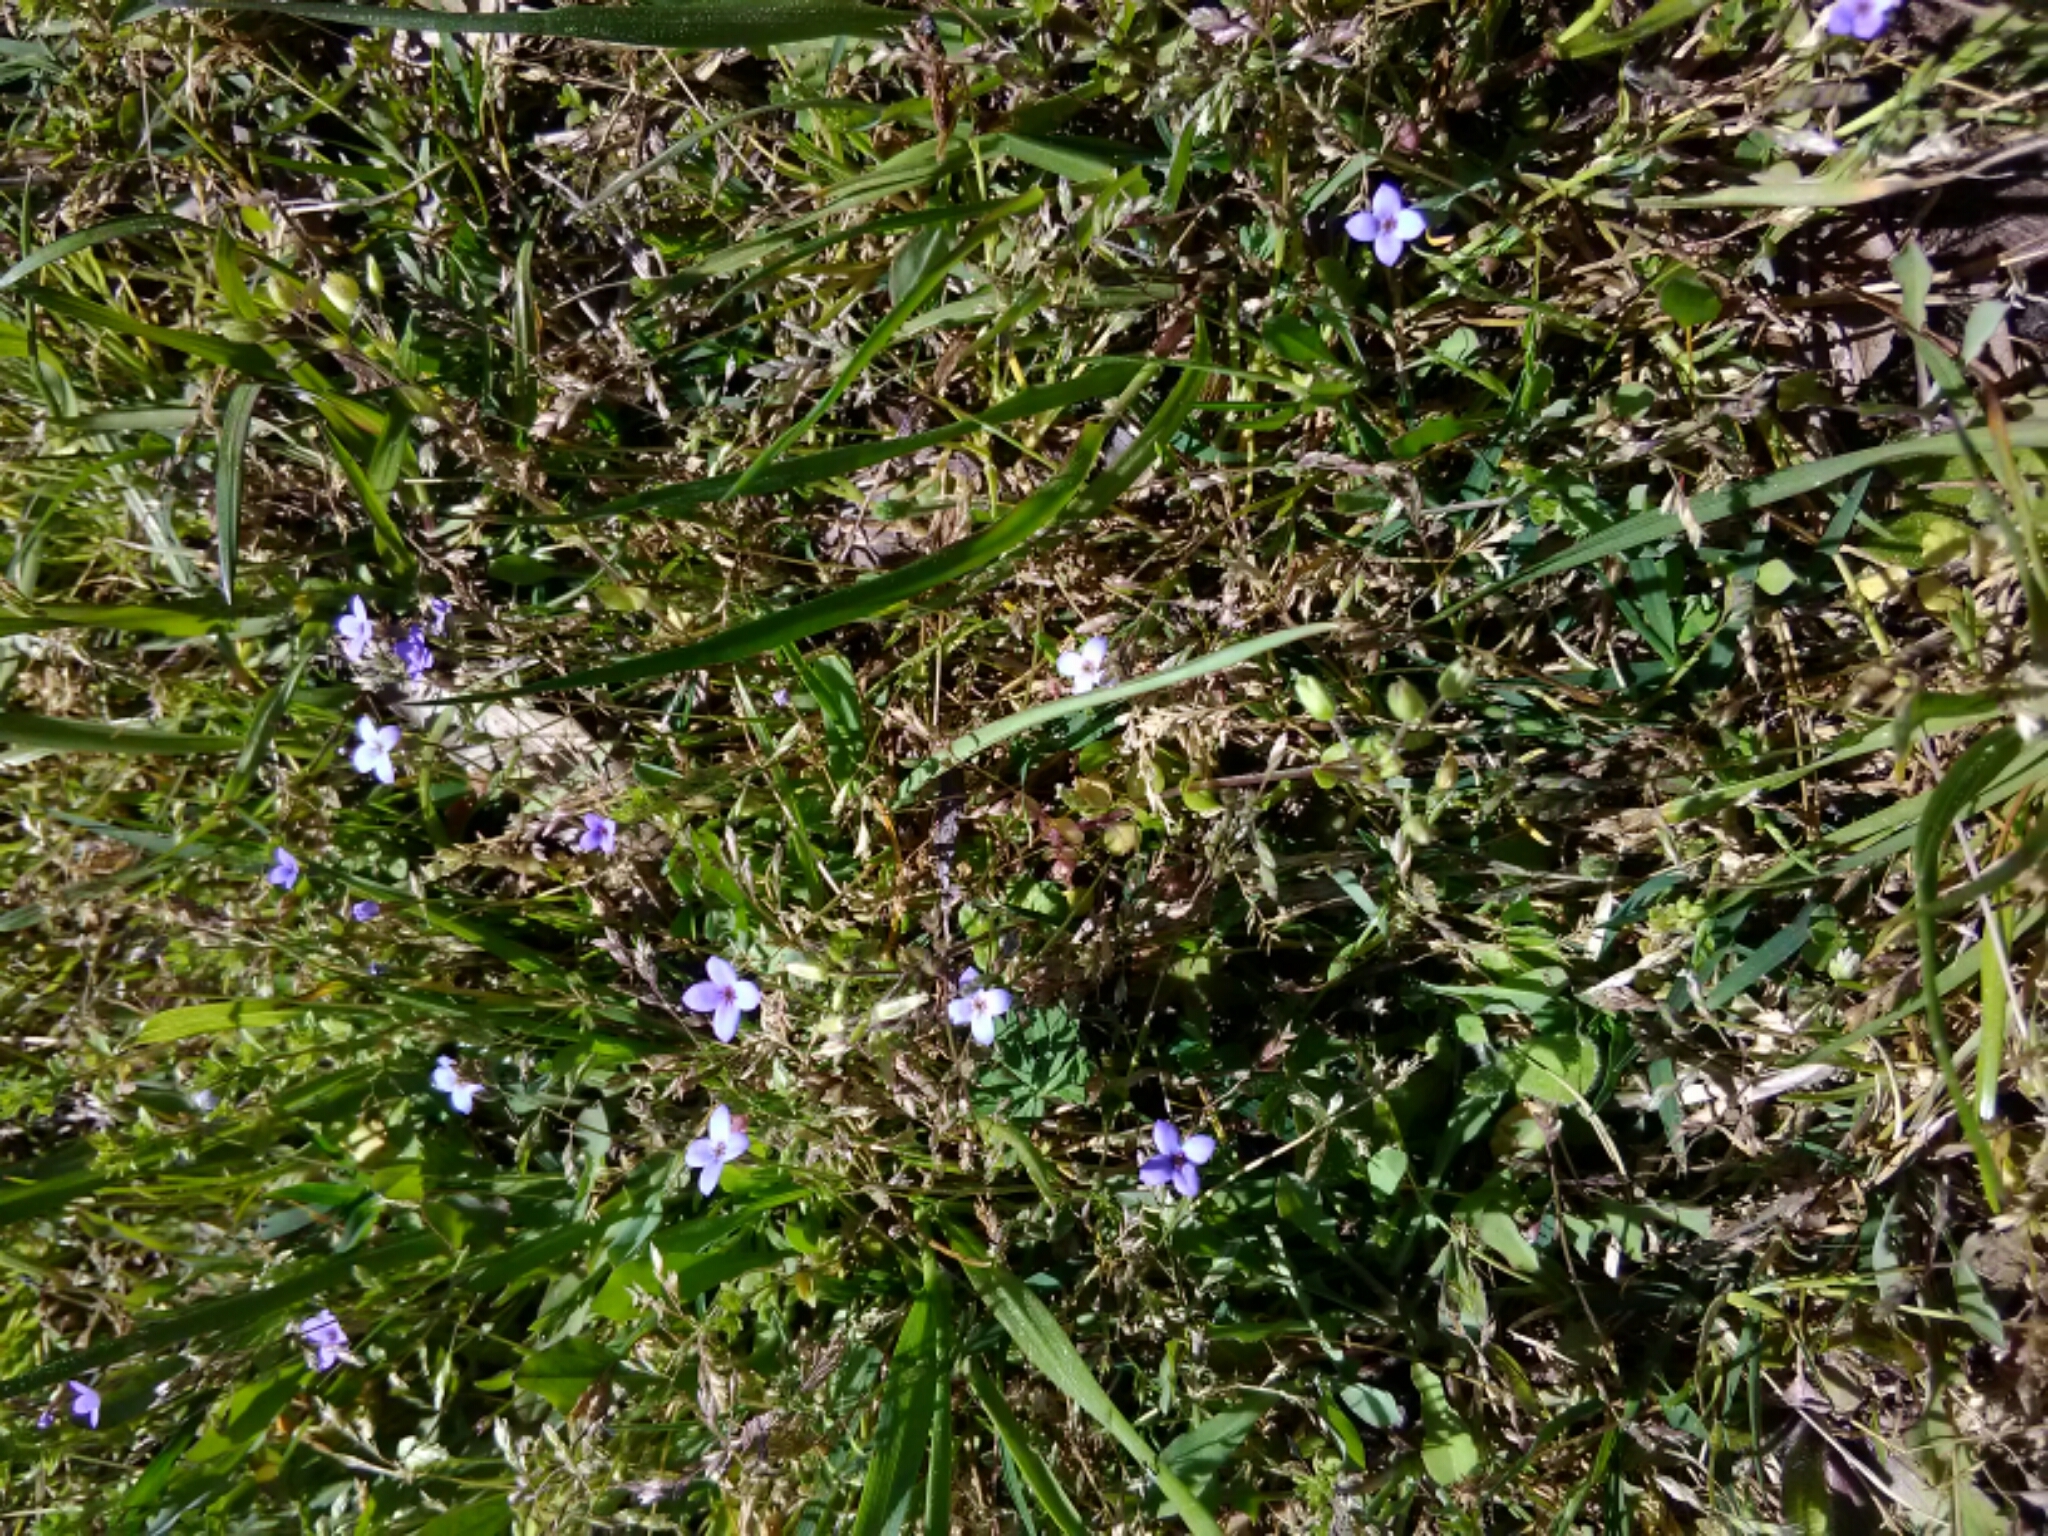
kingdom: Plantae
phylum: Tracheophyta
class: Magnoliopsida
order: Gentianales
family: Rubiaceae
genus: Houstonia
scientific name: Houstonia pusilla
